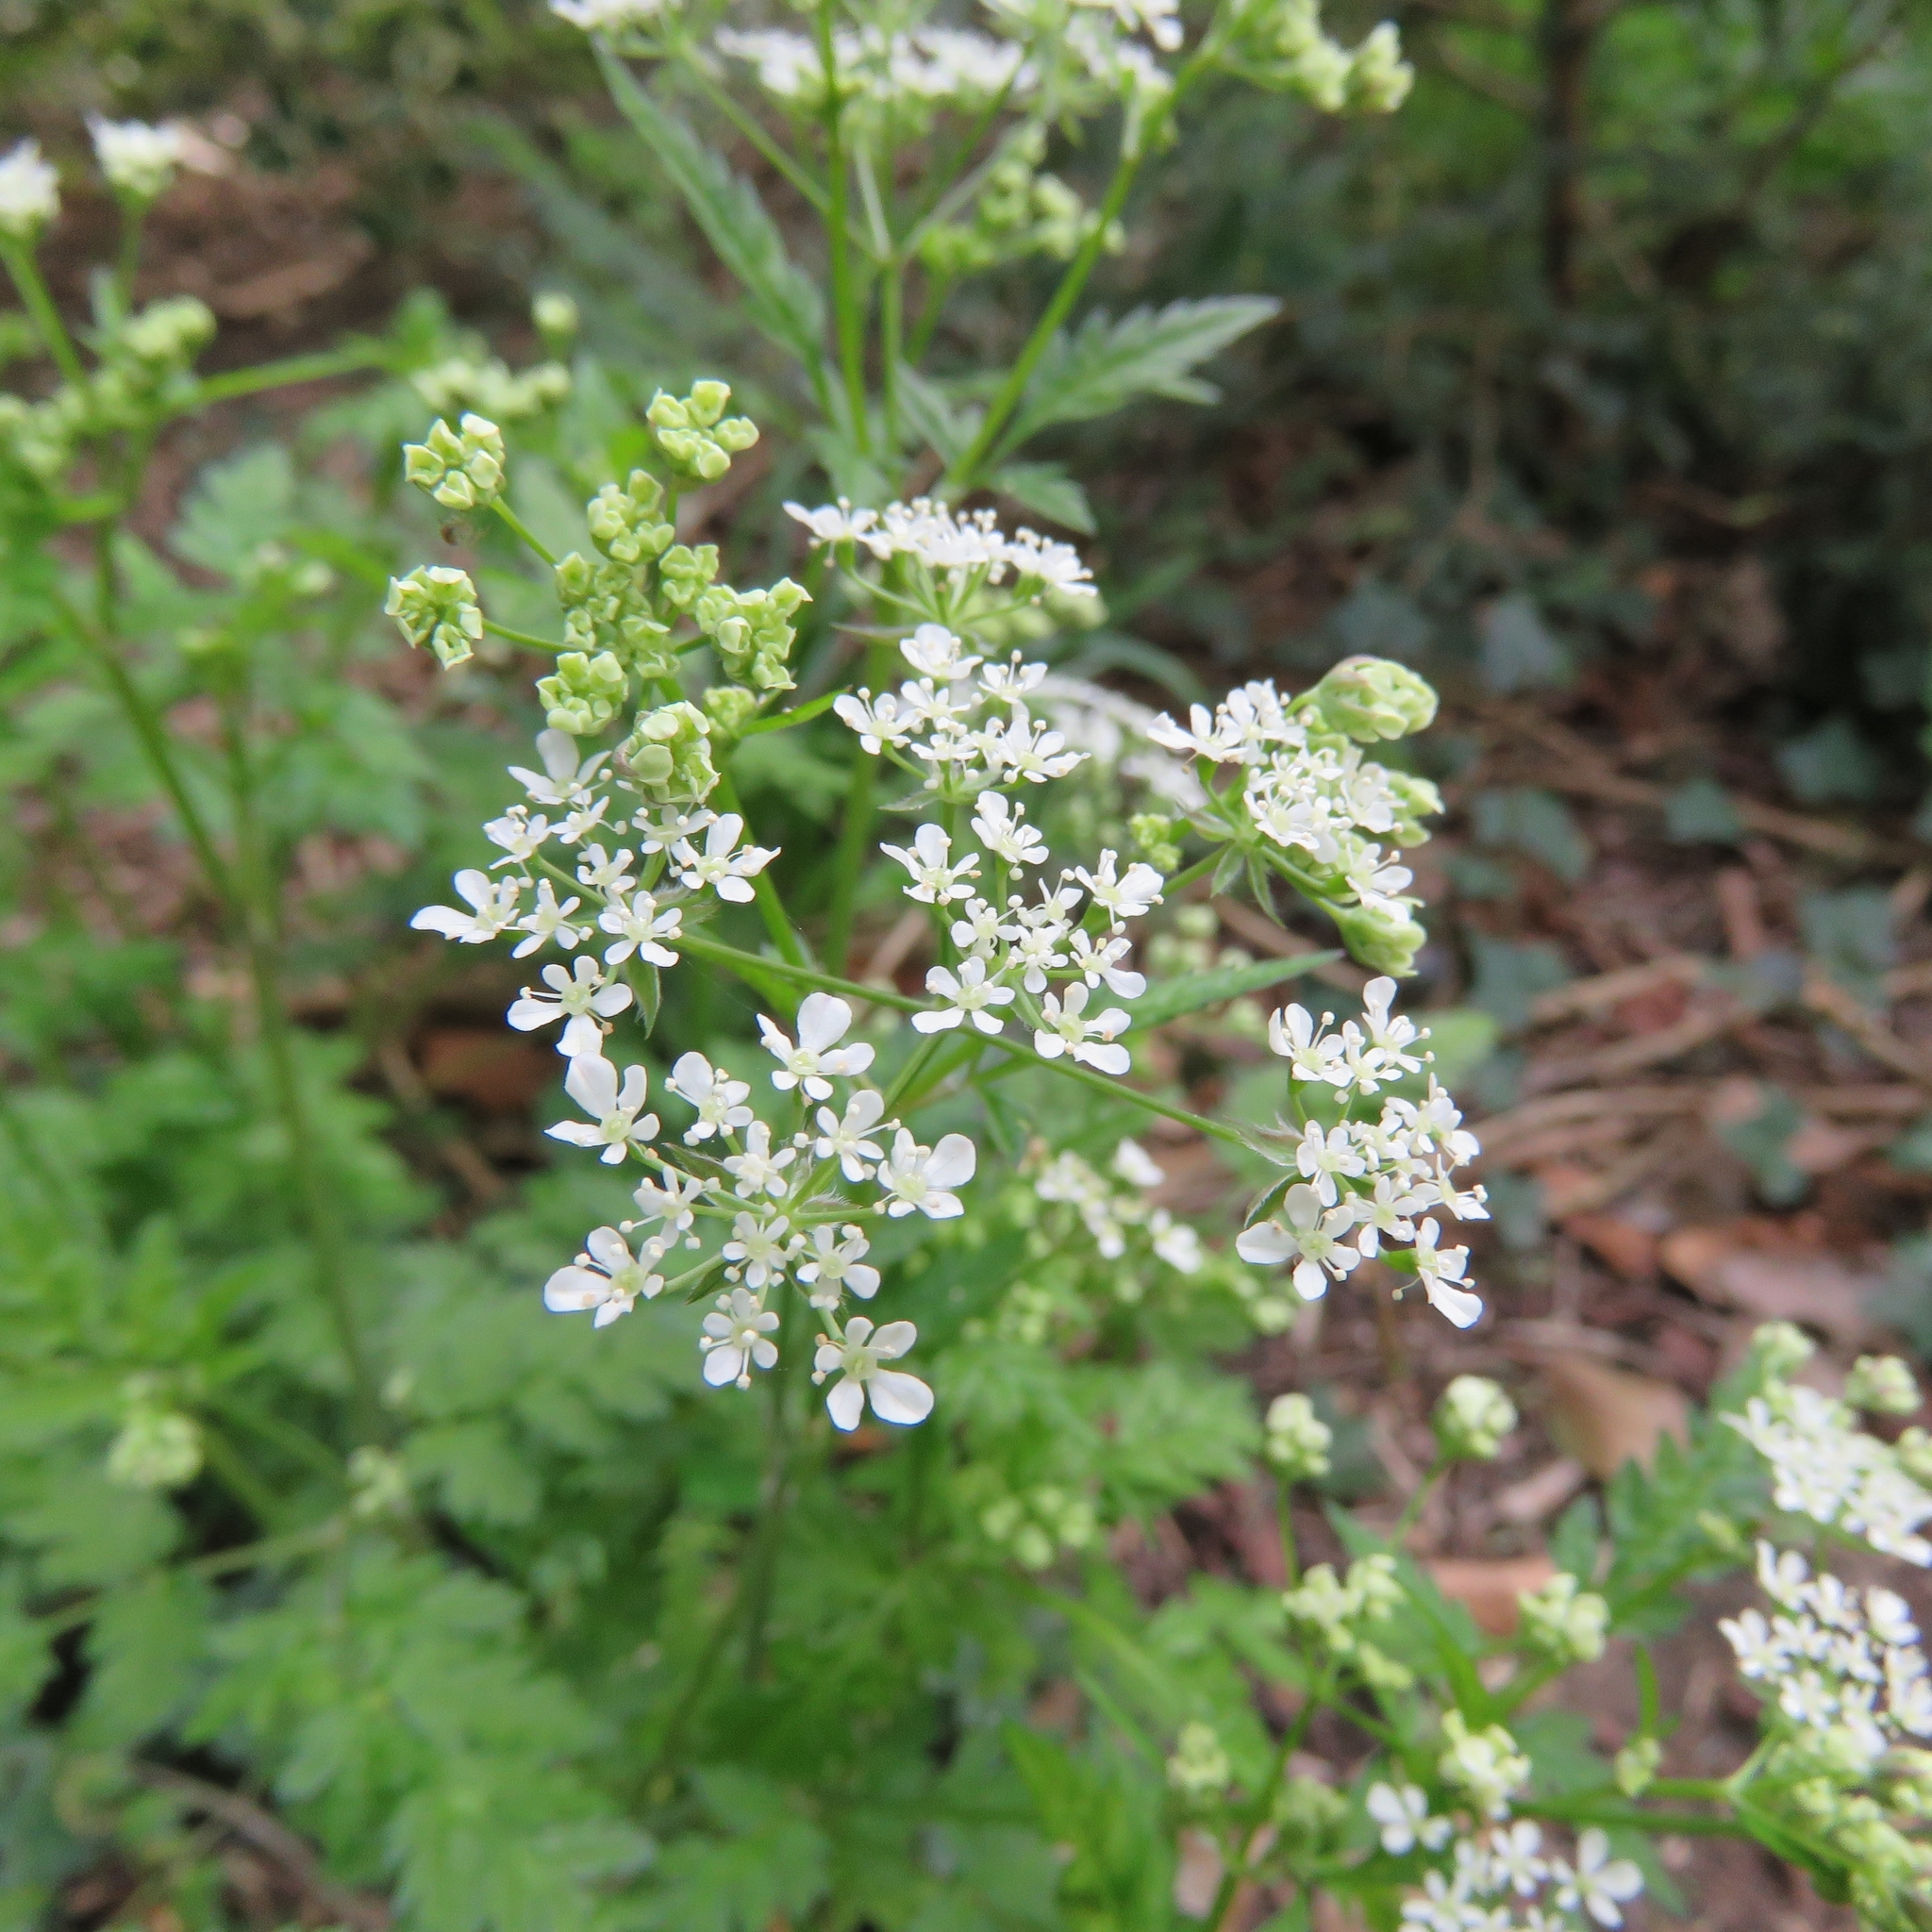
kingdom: Plantae
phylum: Tracheophyta
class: Magnoliopsida
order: Apiales
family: Apiaceae
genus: Anthriscus
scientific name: Anthriscus sylvestris
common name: Cow parsley
